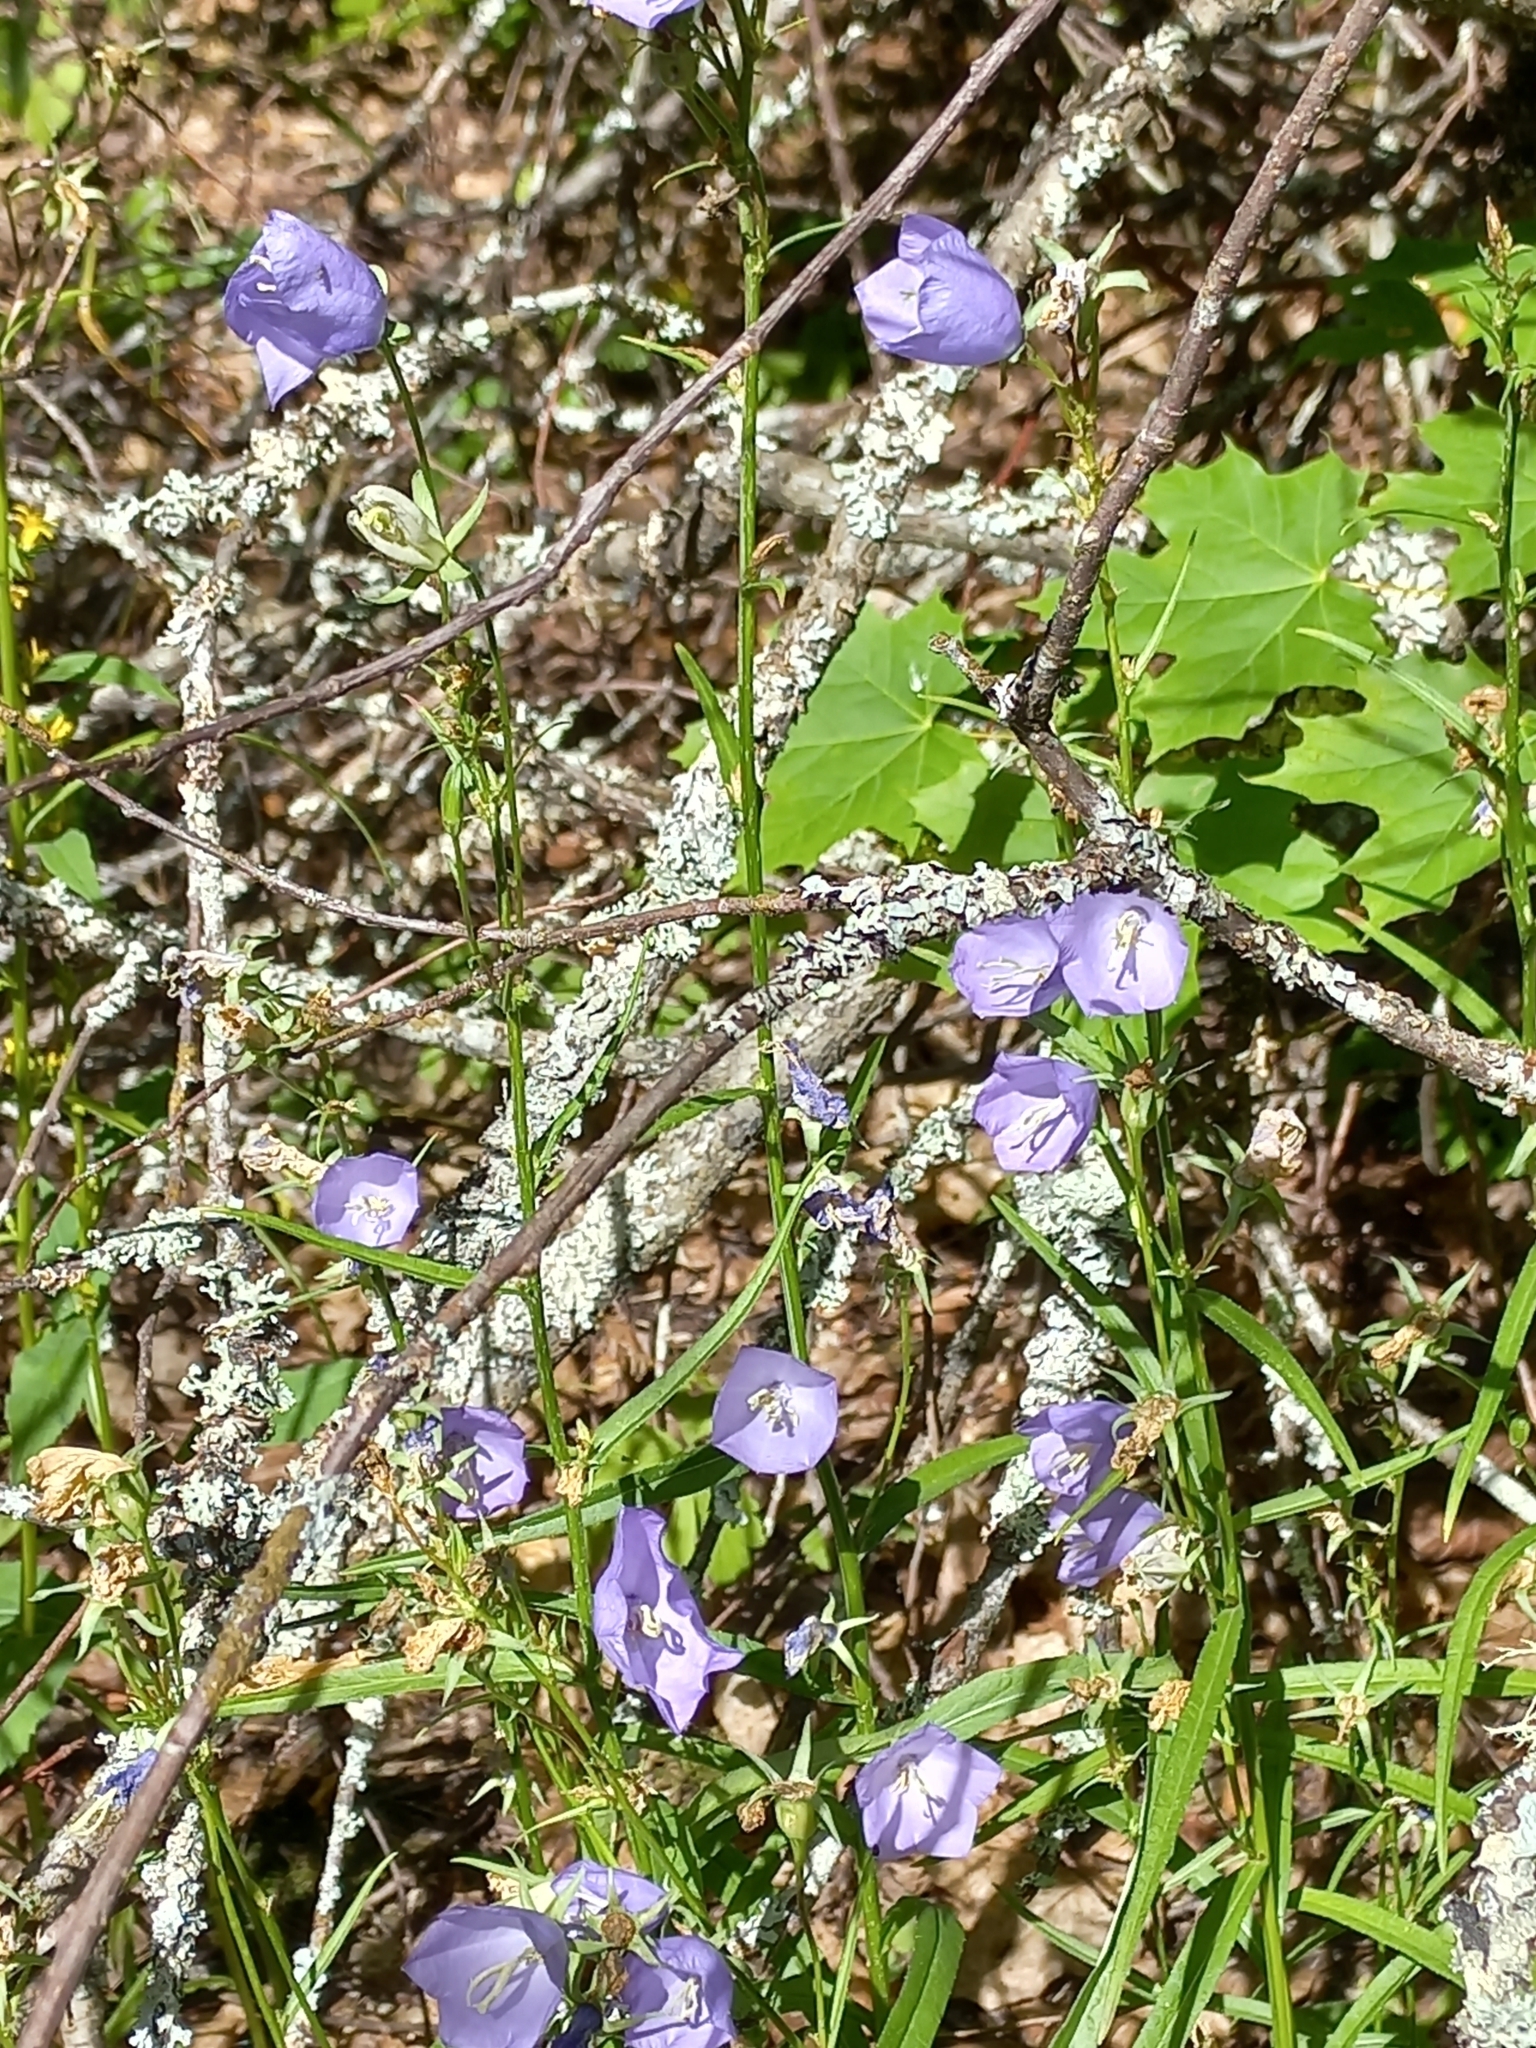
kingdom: Plantae
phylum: Tracheophyta
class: Magnoliopsida
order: Asterales
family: Campanulaceae
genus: Campanula
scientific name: Campanula persicifolia
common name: Peach-leaved bellflower
